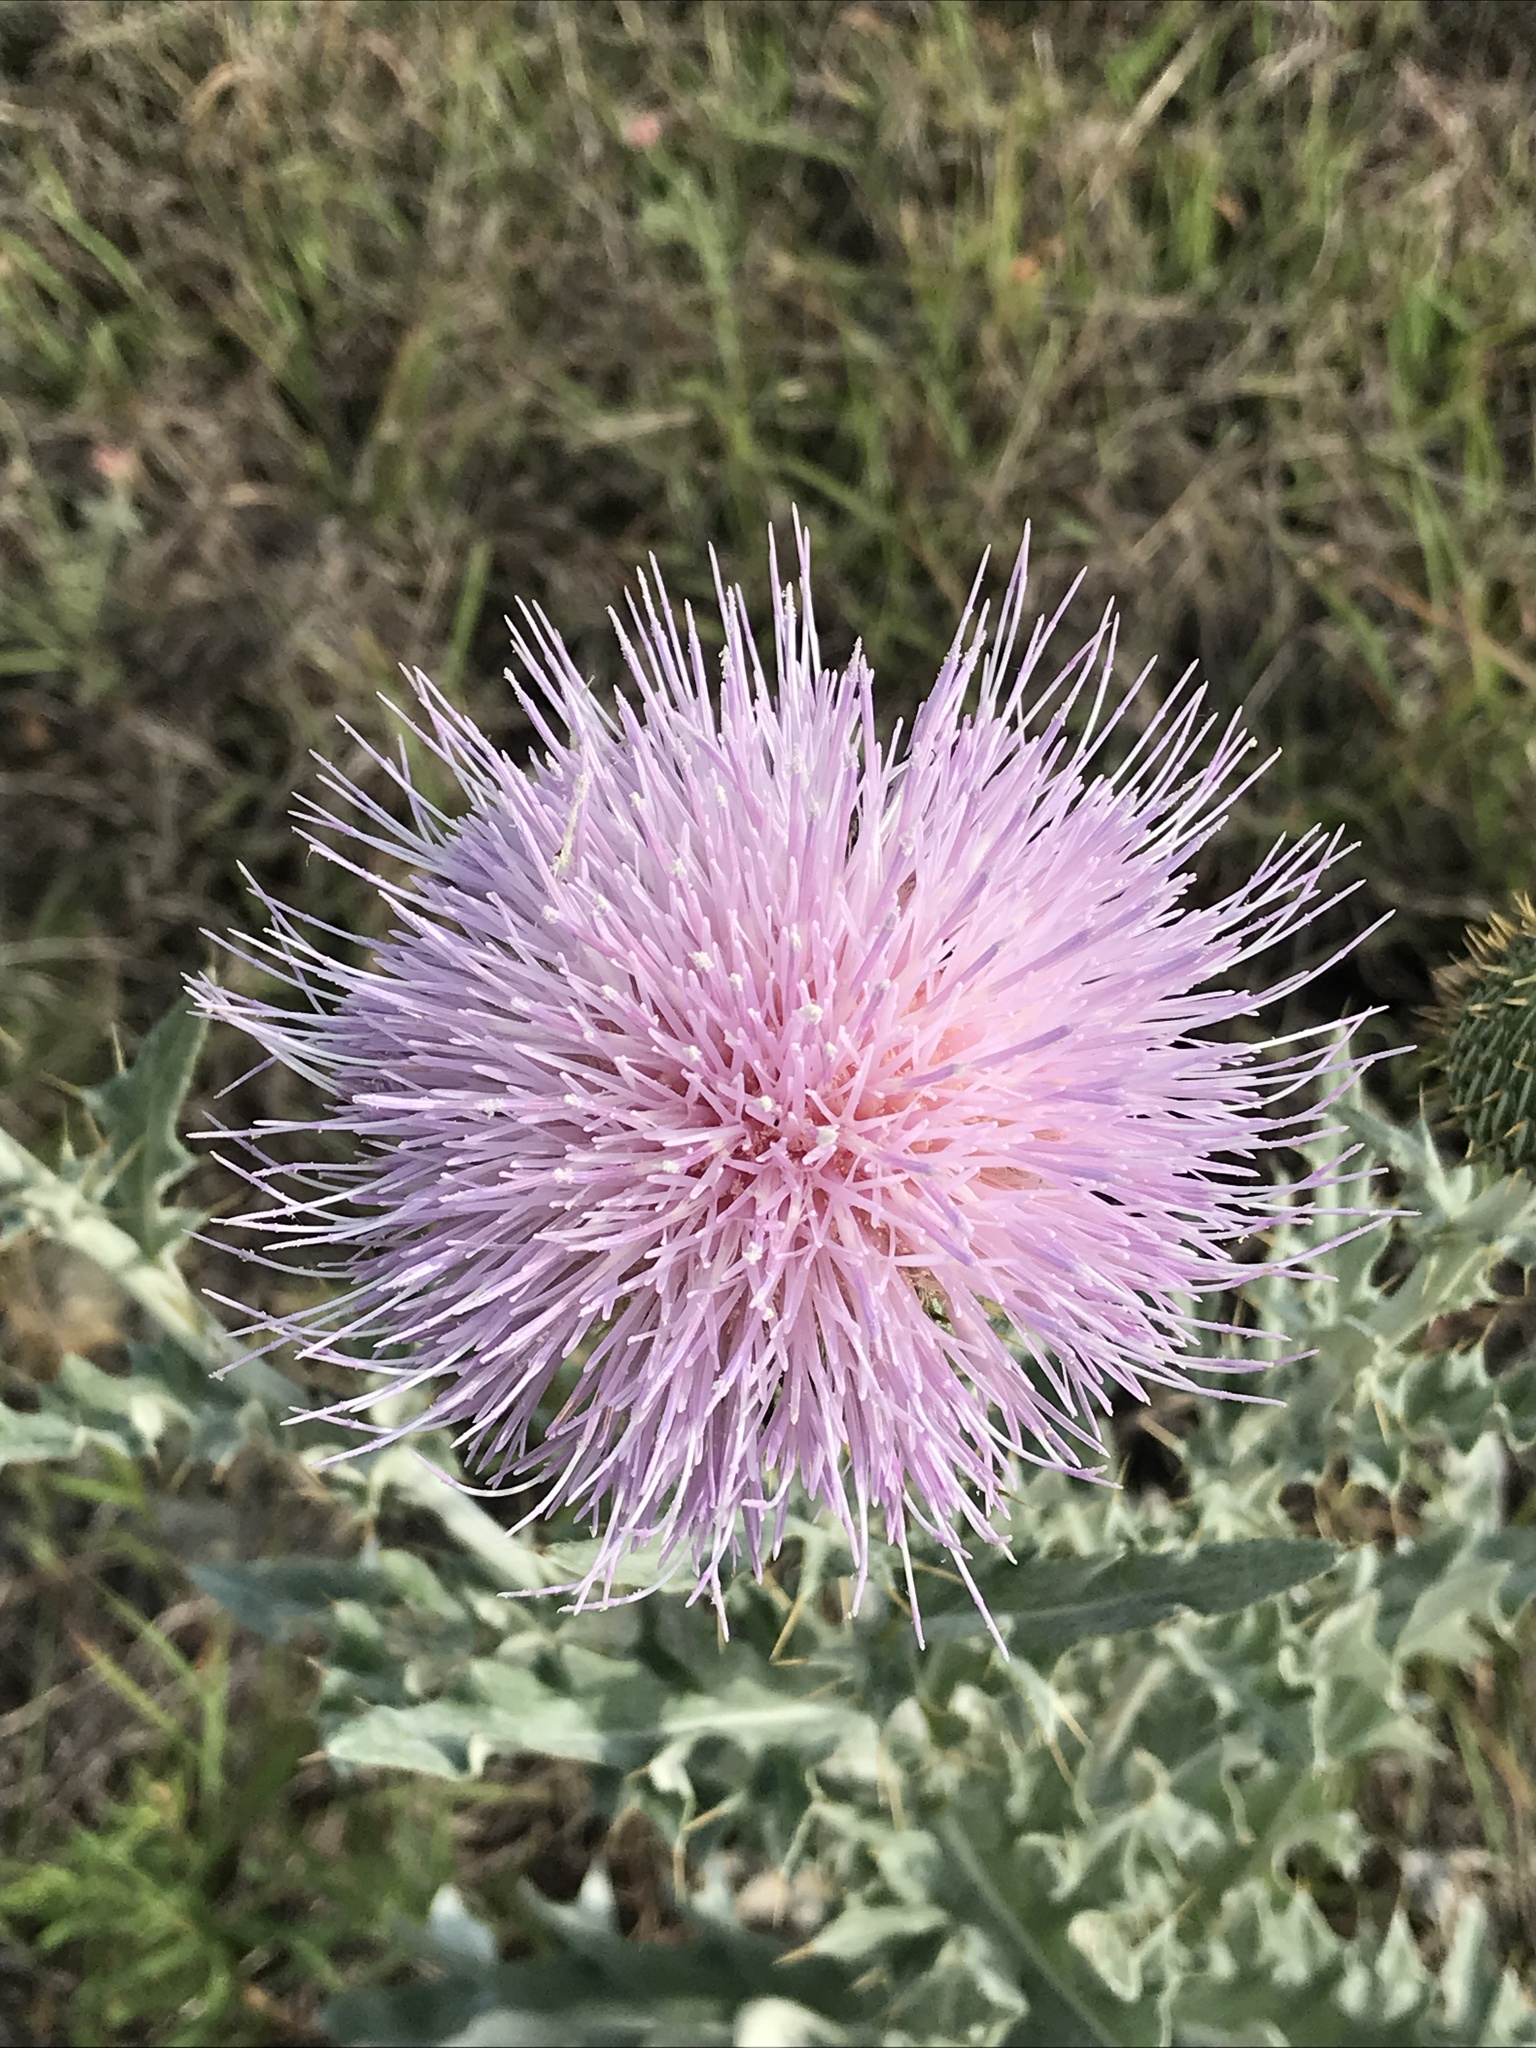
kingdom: Plantae
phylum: Tracheophyta
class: Magnoliopsida
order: Asterales
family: Asteraceae
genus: Cirsium
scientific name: Cirsium undulatum
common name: Pasture thistle
